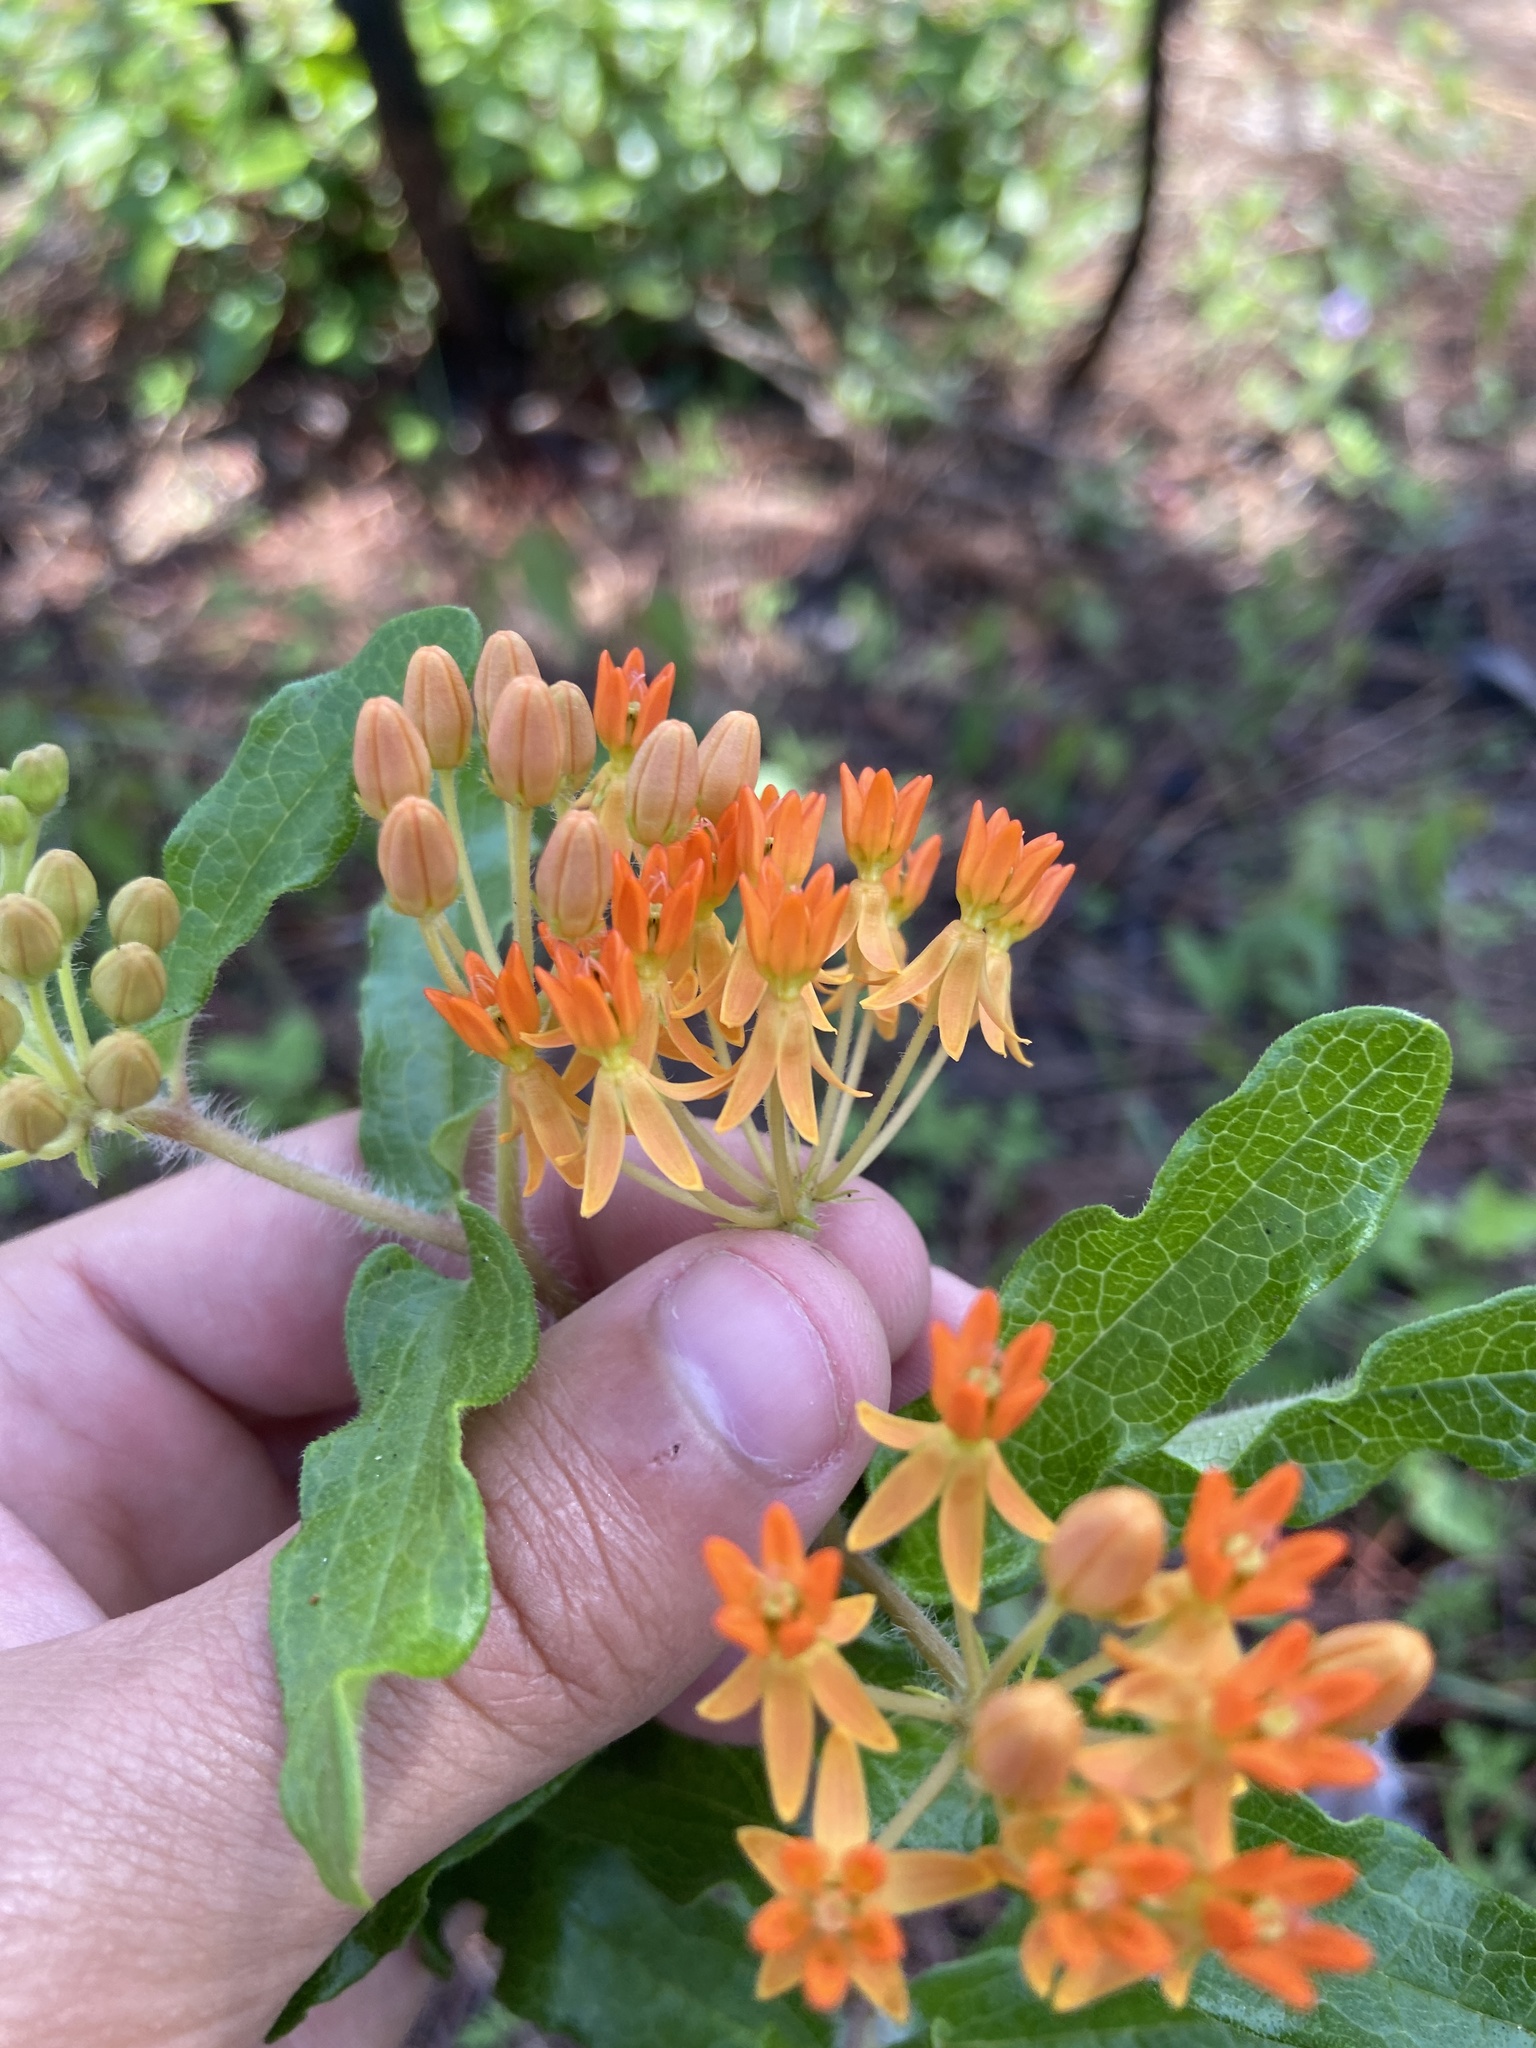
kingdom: Plantae
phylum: Tracheophyta
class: Magnoliopsida
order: Gentianales
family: Apocynaceae
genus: Asclepias
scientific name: Asclepias tuberosa
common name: Butterfly milkweed
